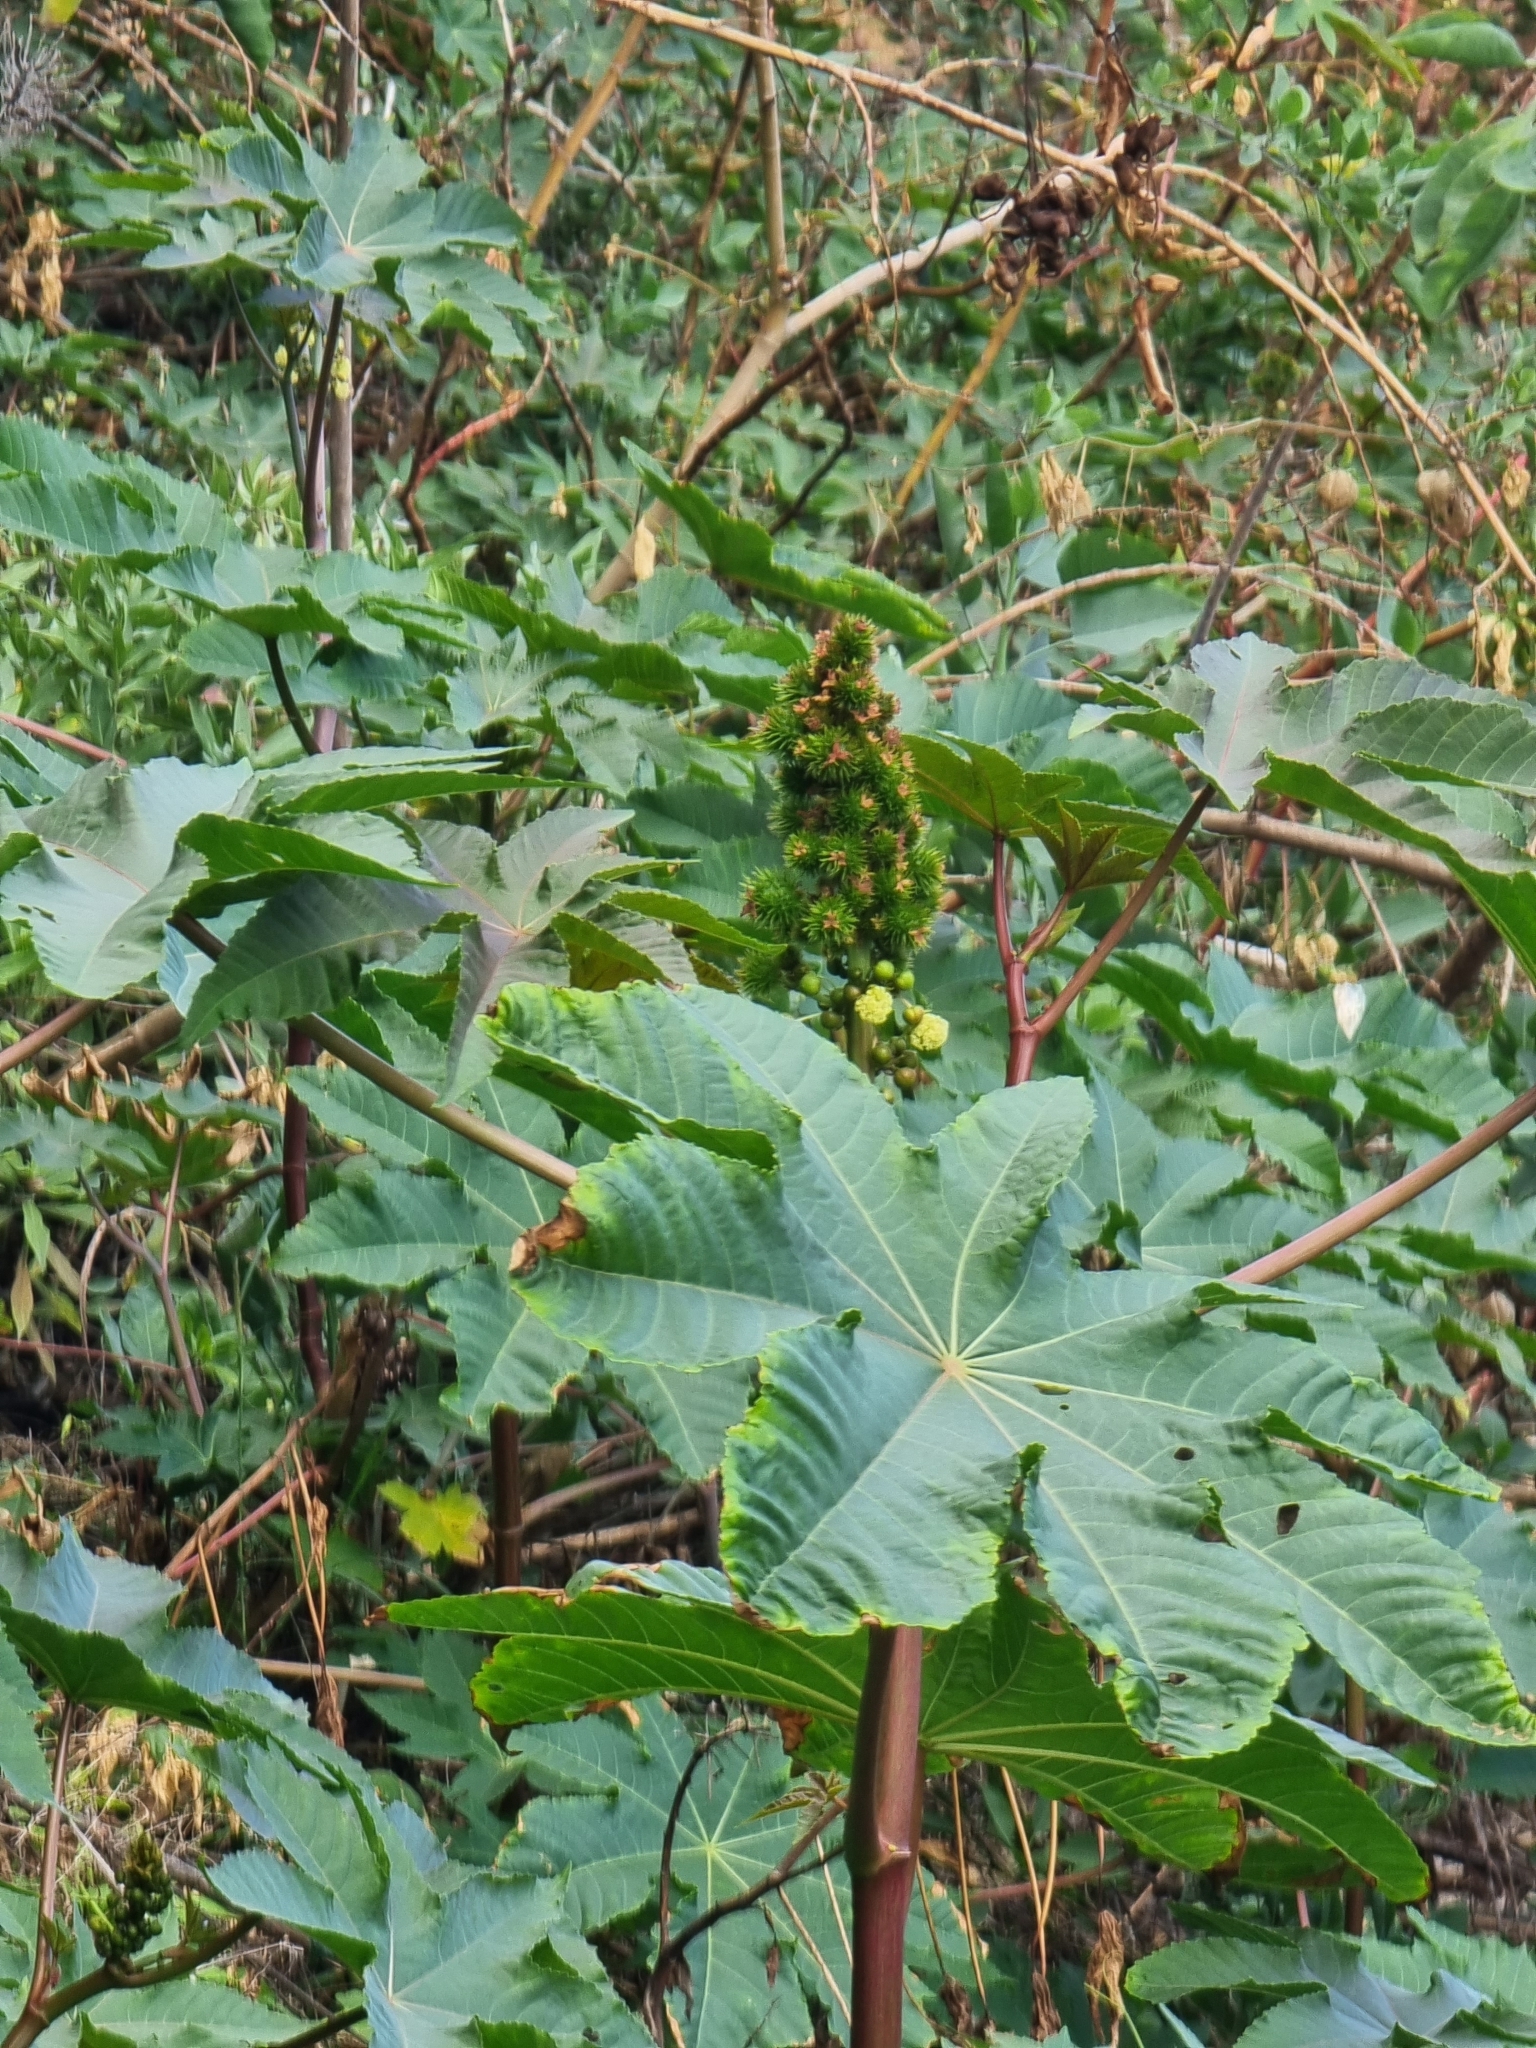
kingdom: Plantae
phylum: Tracheophyta
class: Magnoliopsida
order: Malpighiales
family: Euphorbiaceae
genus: Ricinus
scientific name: Ricinus communis
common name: Castor-oil-plant
